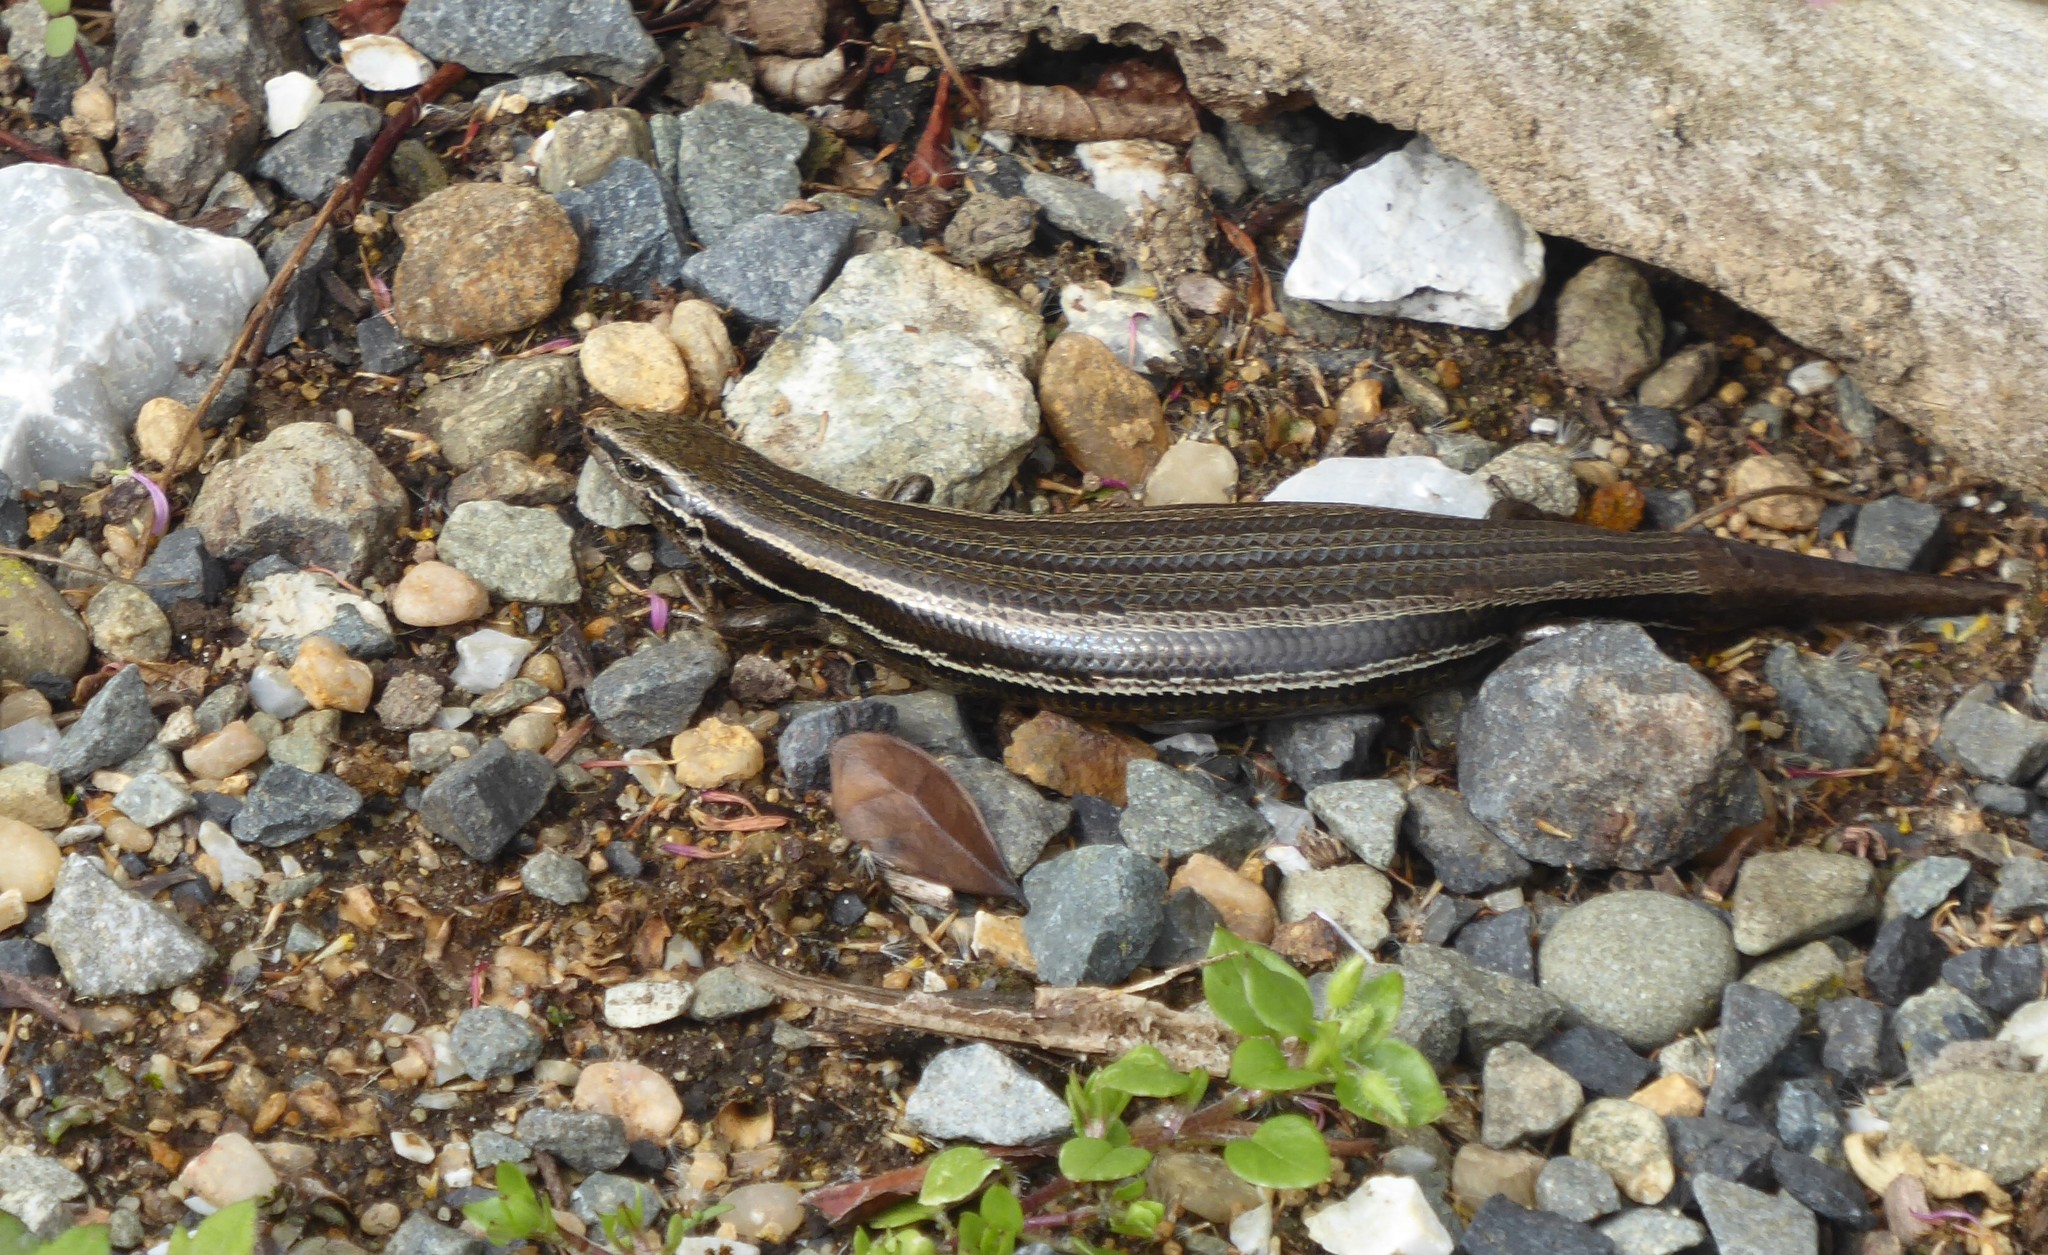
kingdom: Animalia
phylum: Chordata
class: Squamata
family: Scincidae
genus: Oligosoma
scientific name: Oligosoma polychroma
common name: Common new zealand skink
